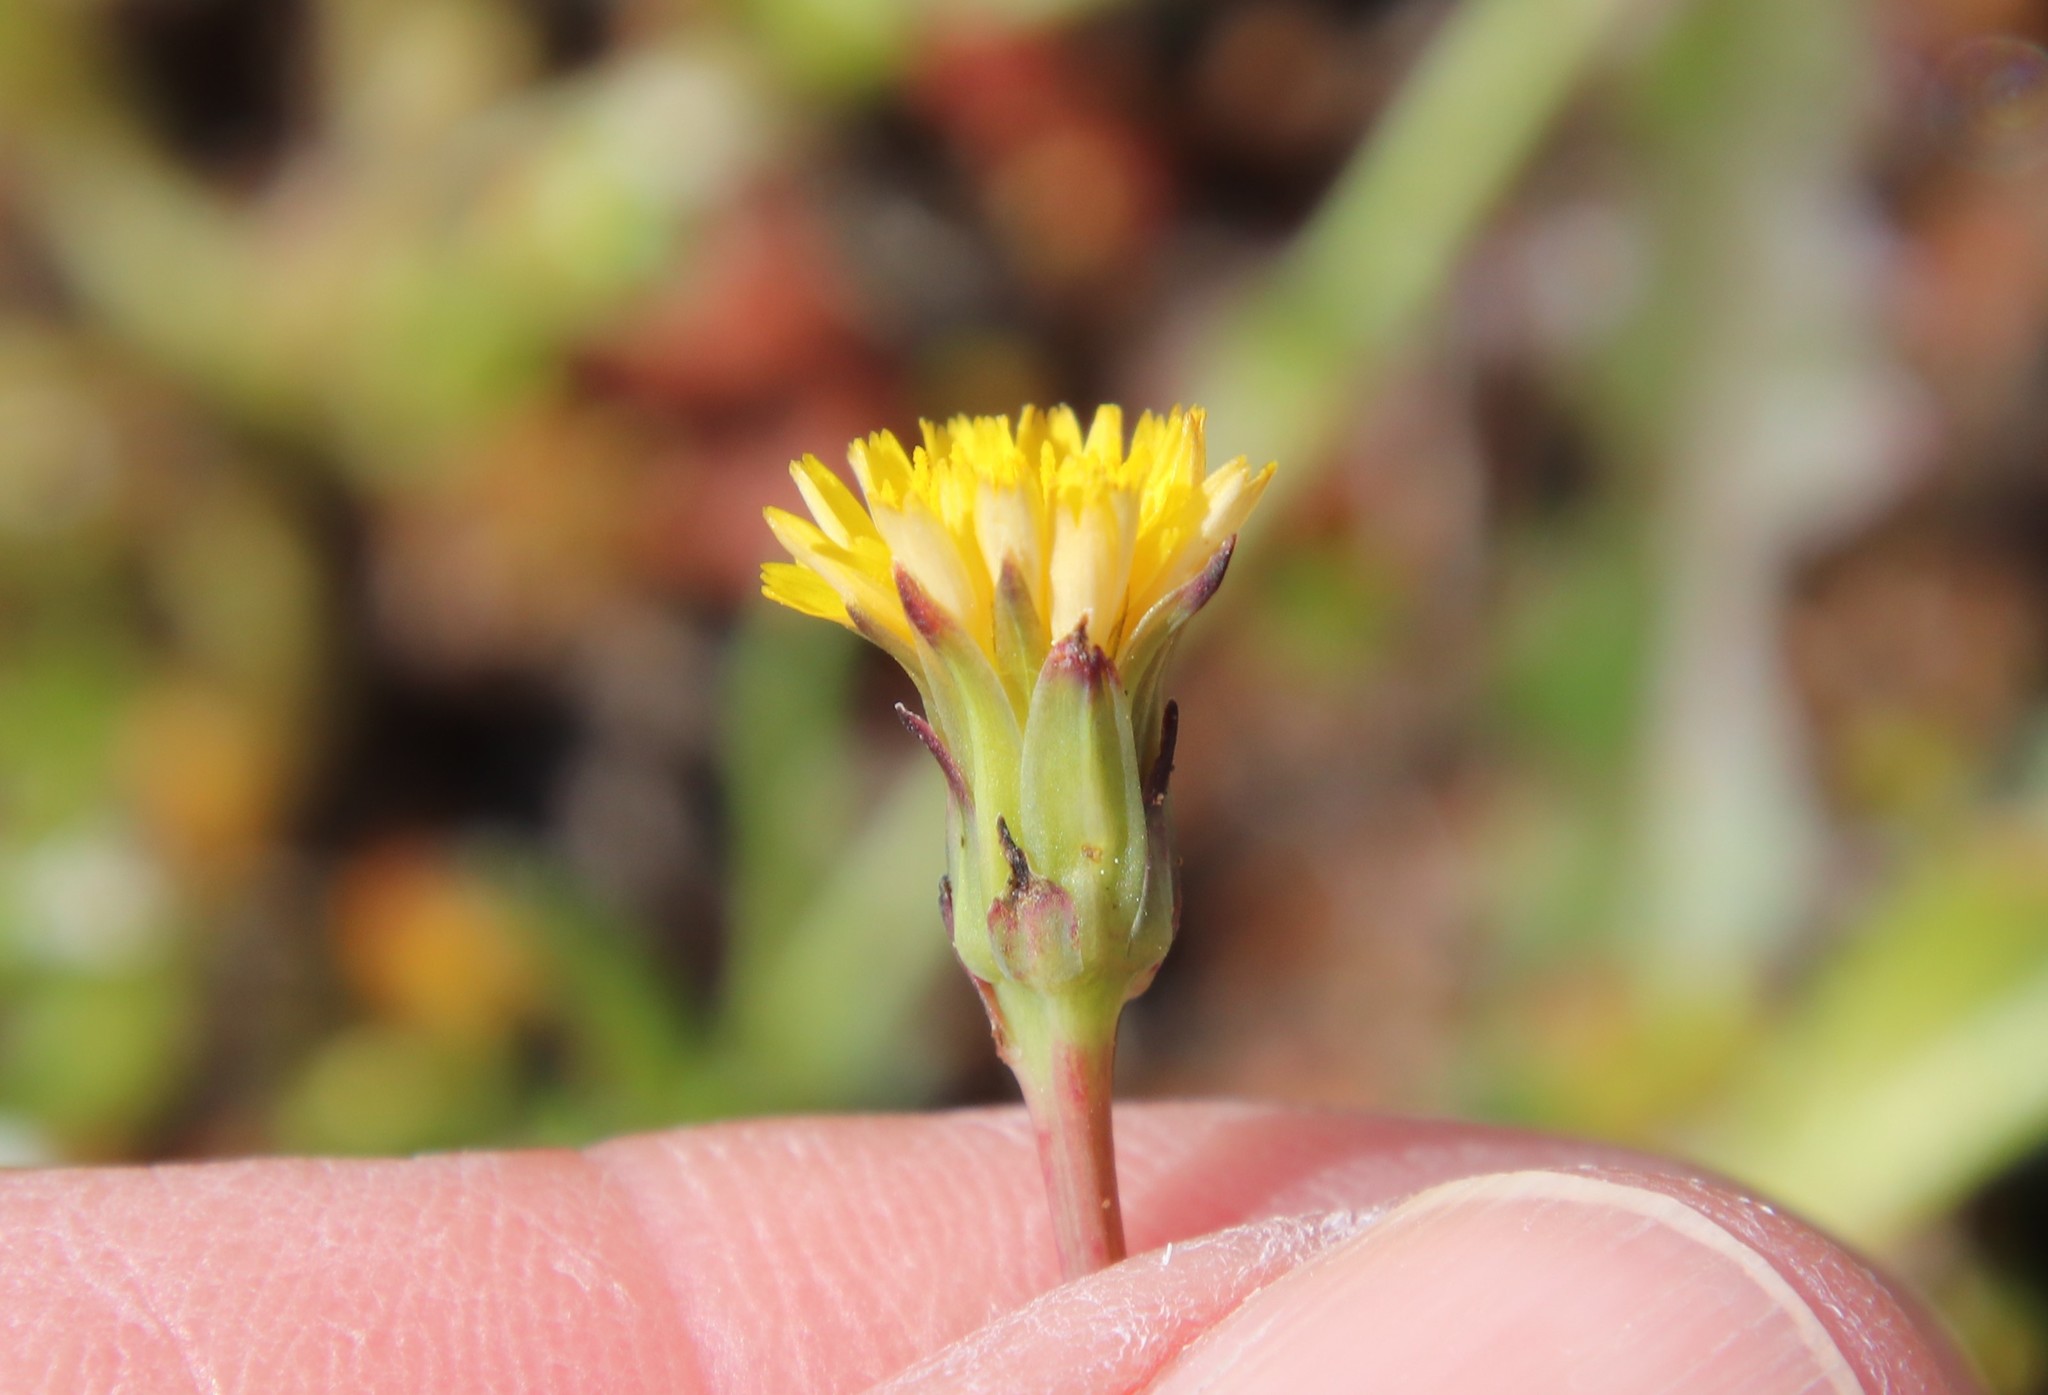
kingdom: Plantae
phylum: Tracheophyta
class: Magnoliopsida
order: Asterales
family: Asteraceae
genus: Hypochaeris
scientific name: Hypochaeris glabra
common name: Smooth catsear
